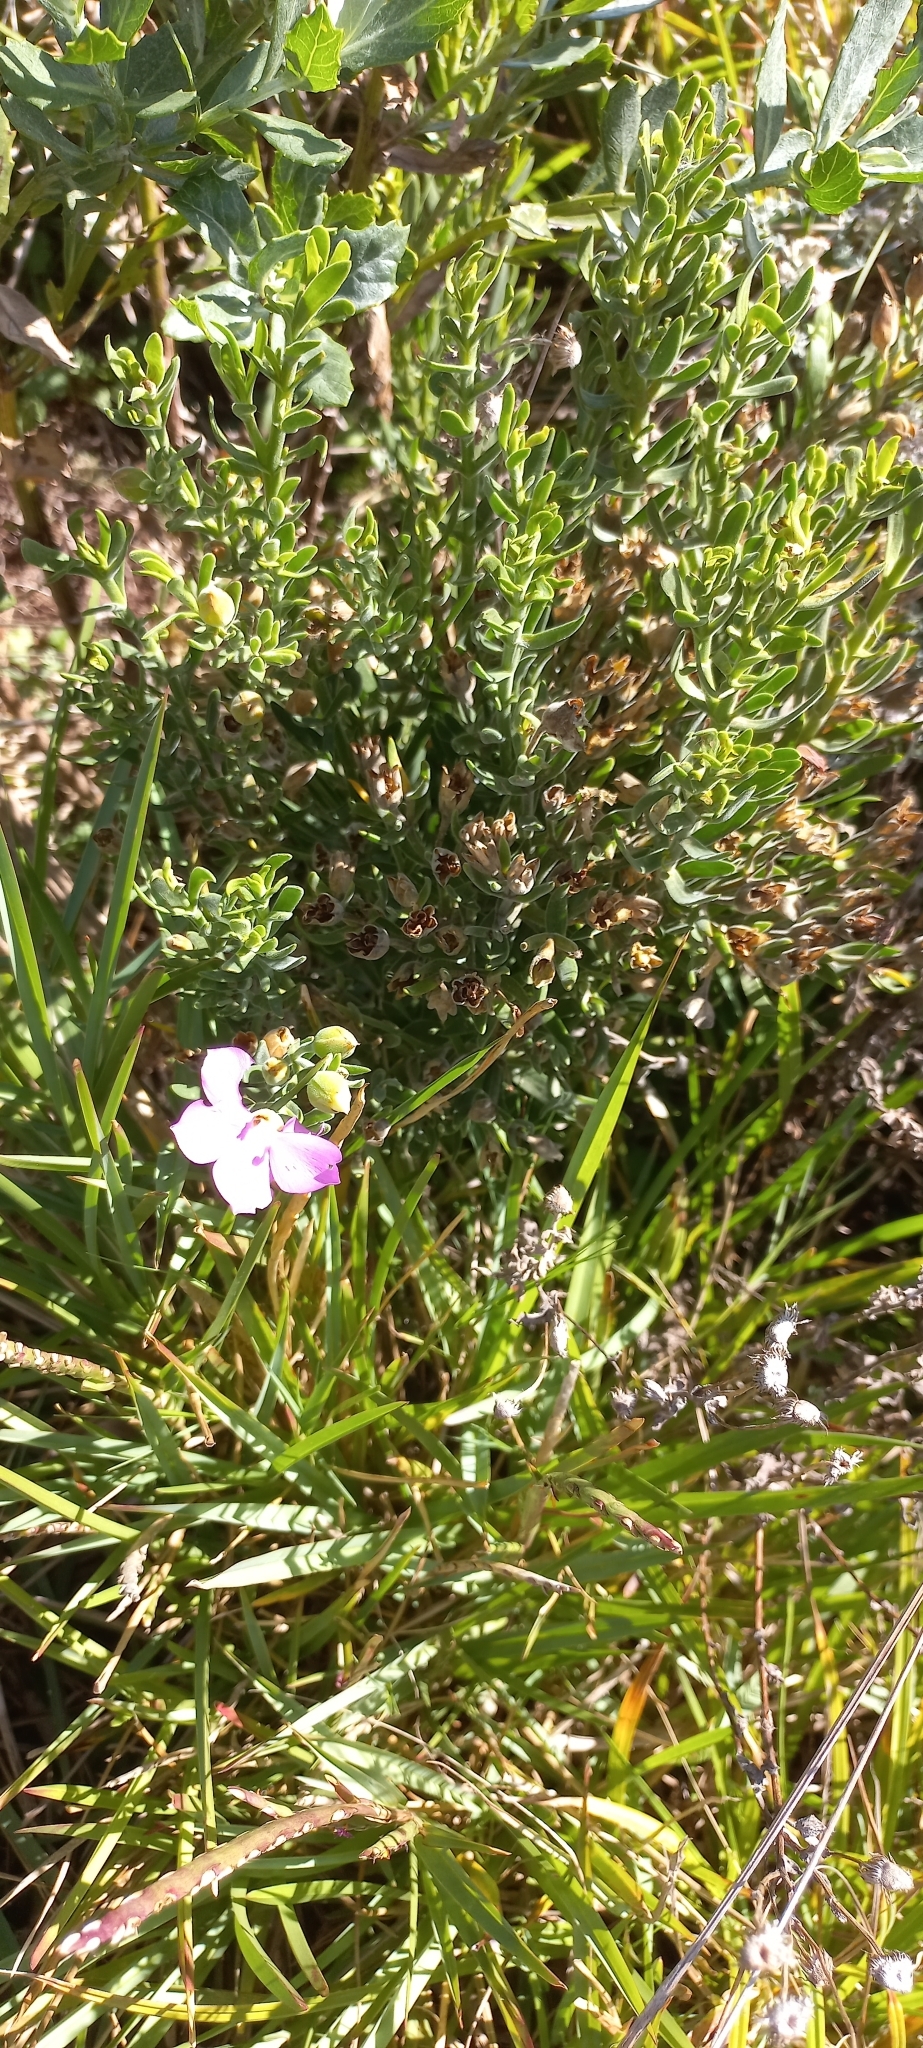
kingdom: Plantae
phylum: Tracheophyta
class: Magnoliopsida
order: Gentianales
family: Gentianaceae
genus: Orphium
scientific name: Orphium frutescens
